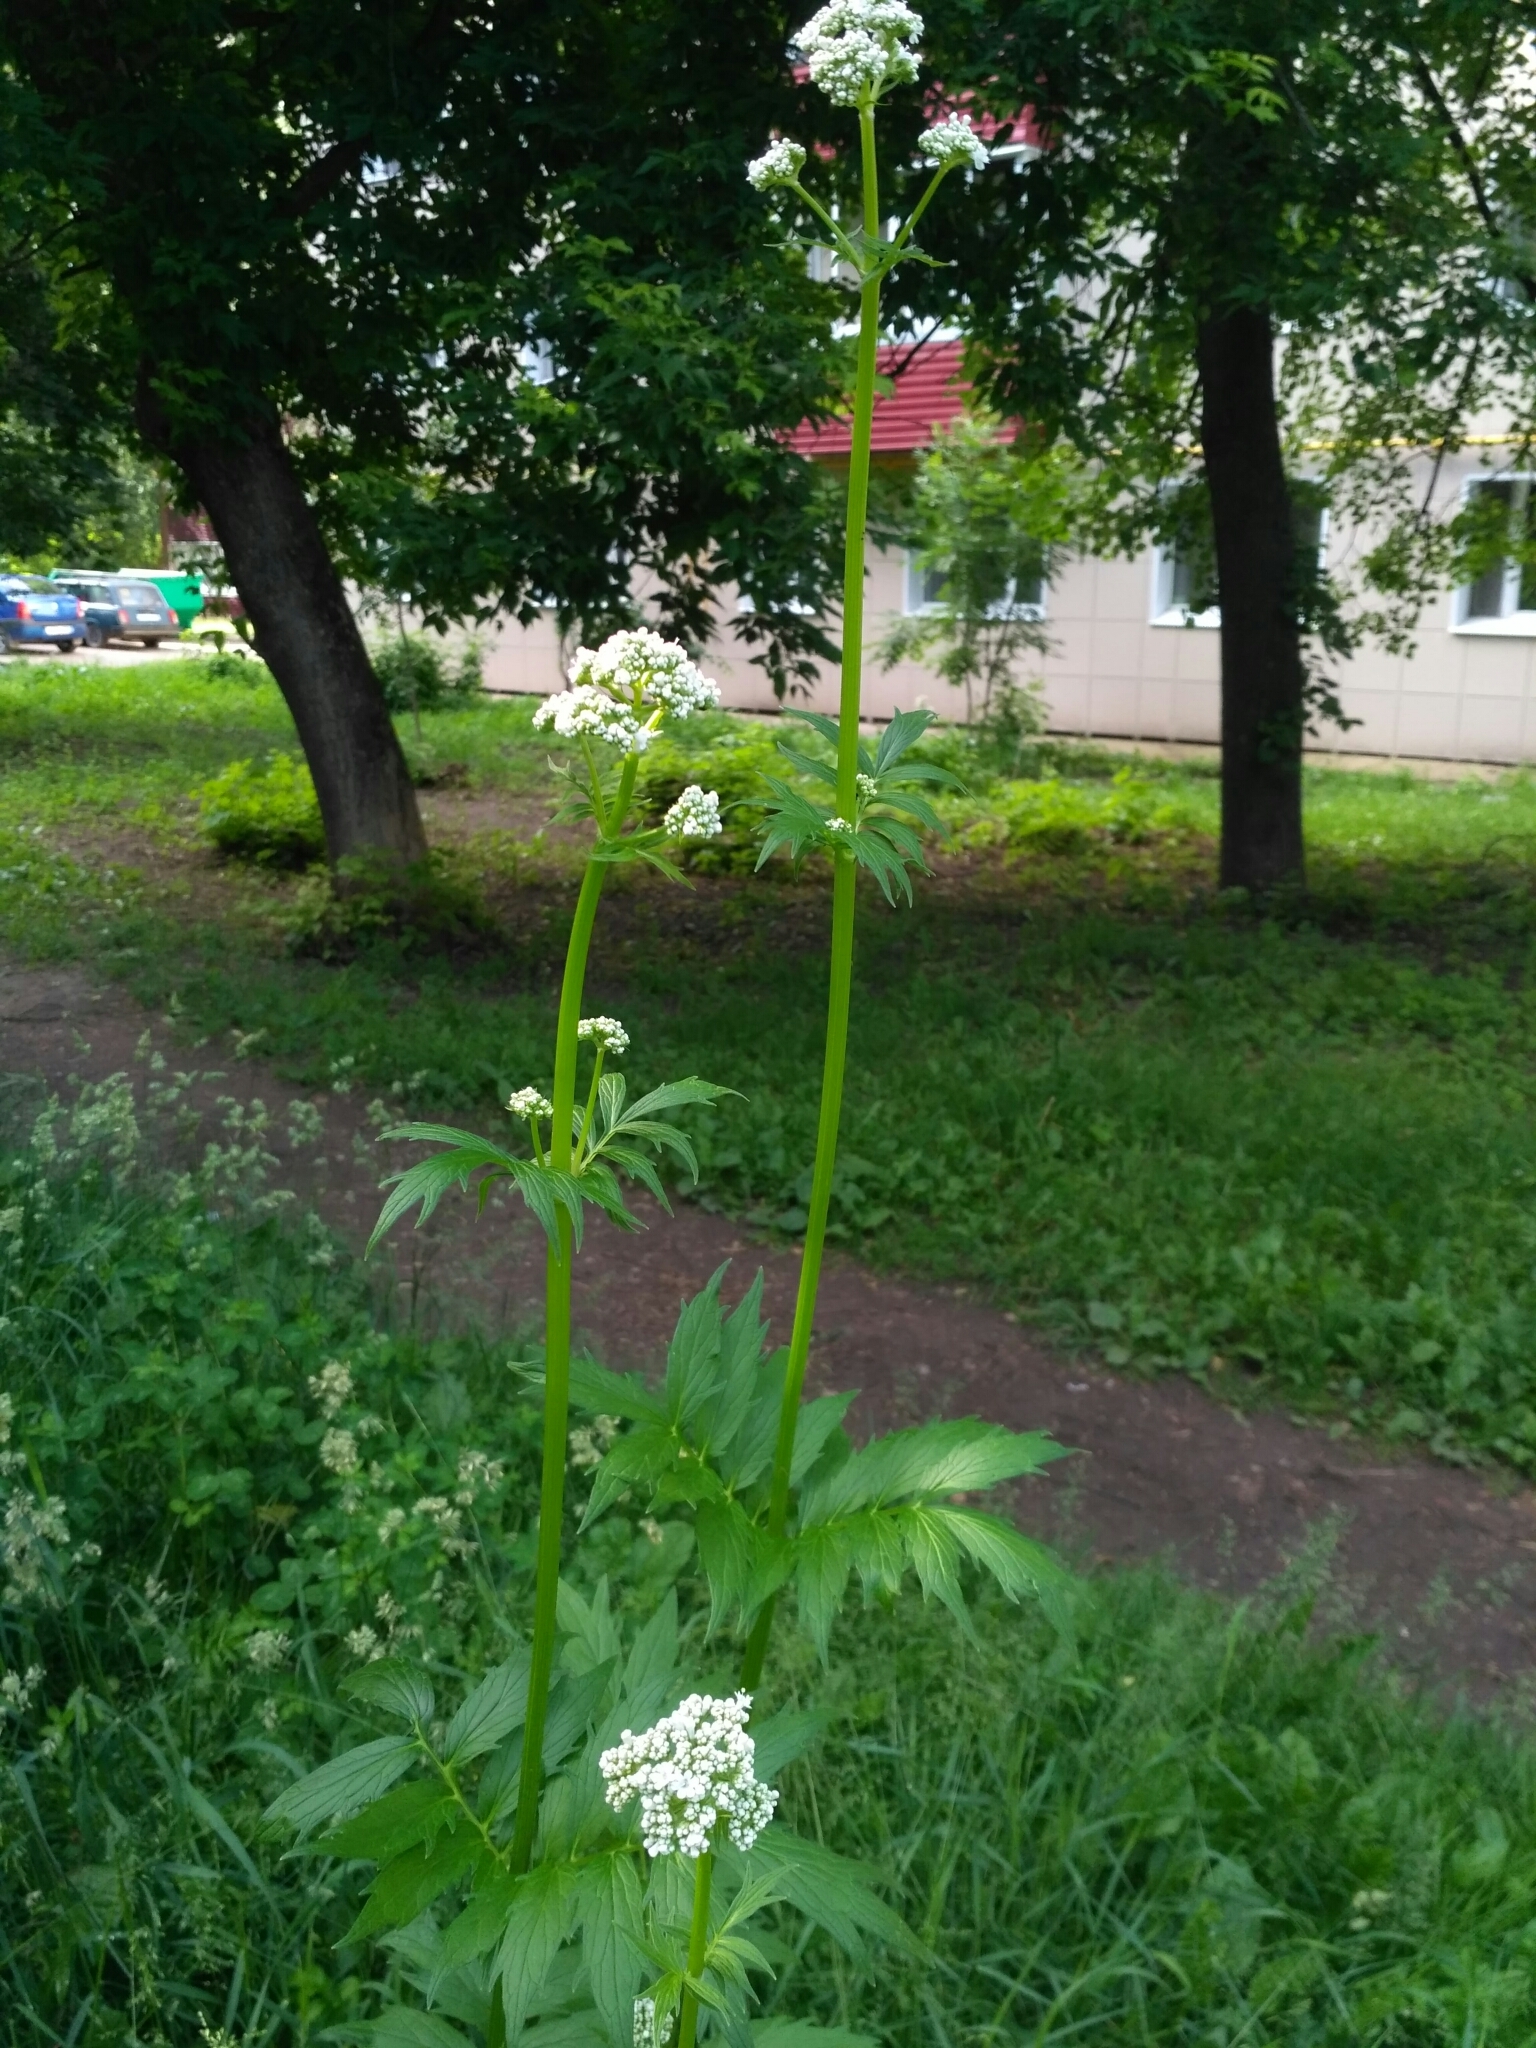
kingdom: Plantae
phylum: Tracheophyta
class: Magnoliopsida
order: Dipsacales
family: Caprifoliaceae
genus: Valeriana
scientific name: Valeriana officinalis
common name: Common valerian
